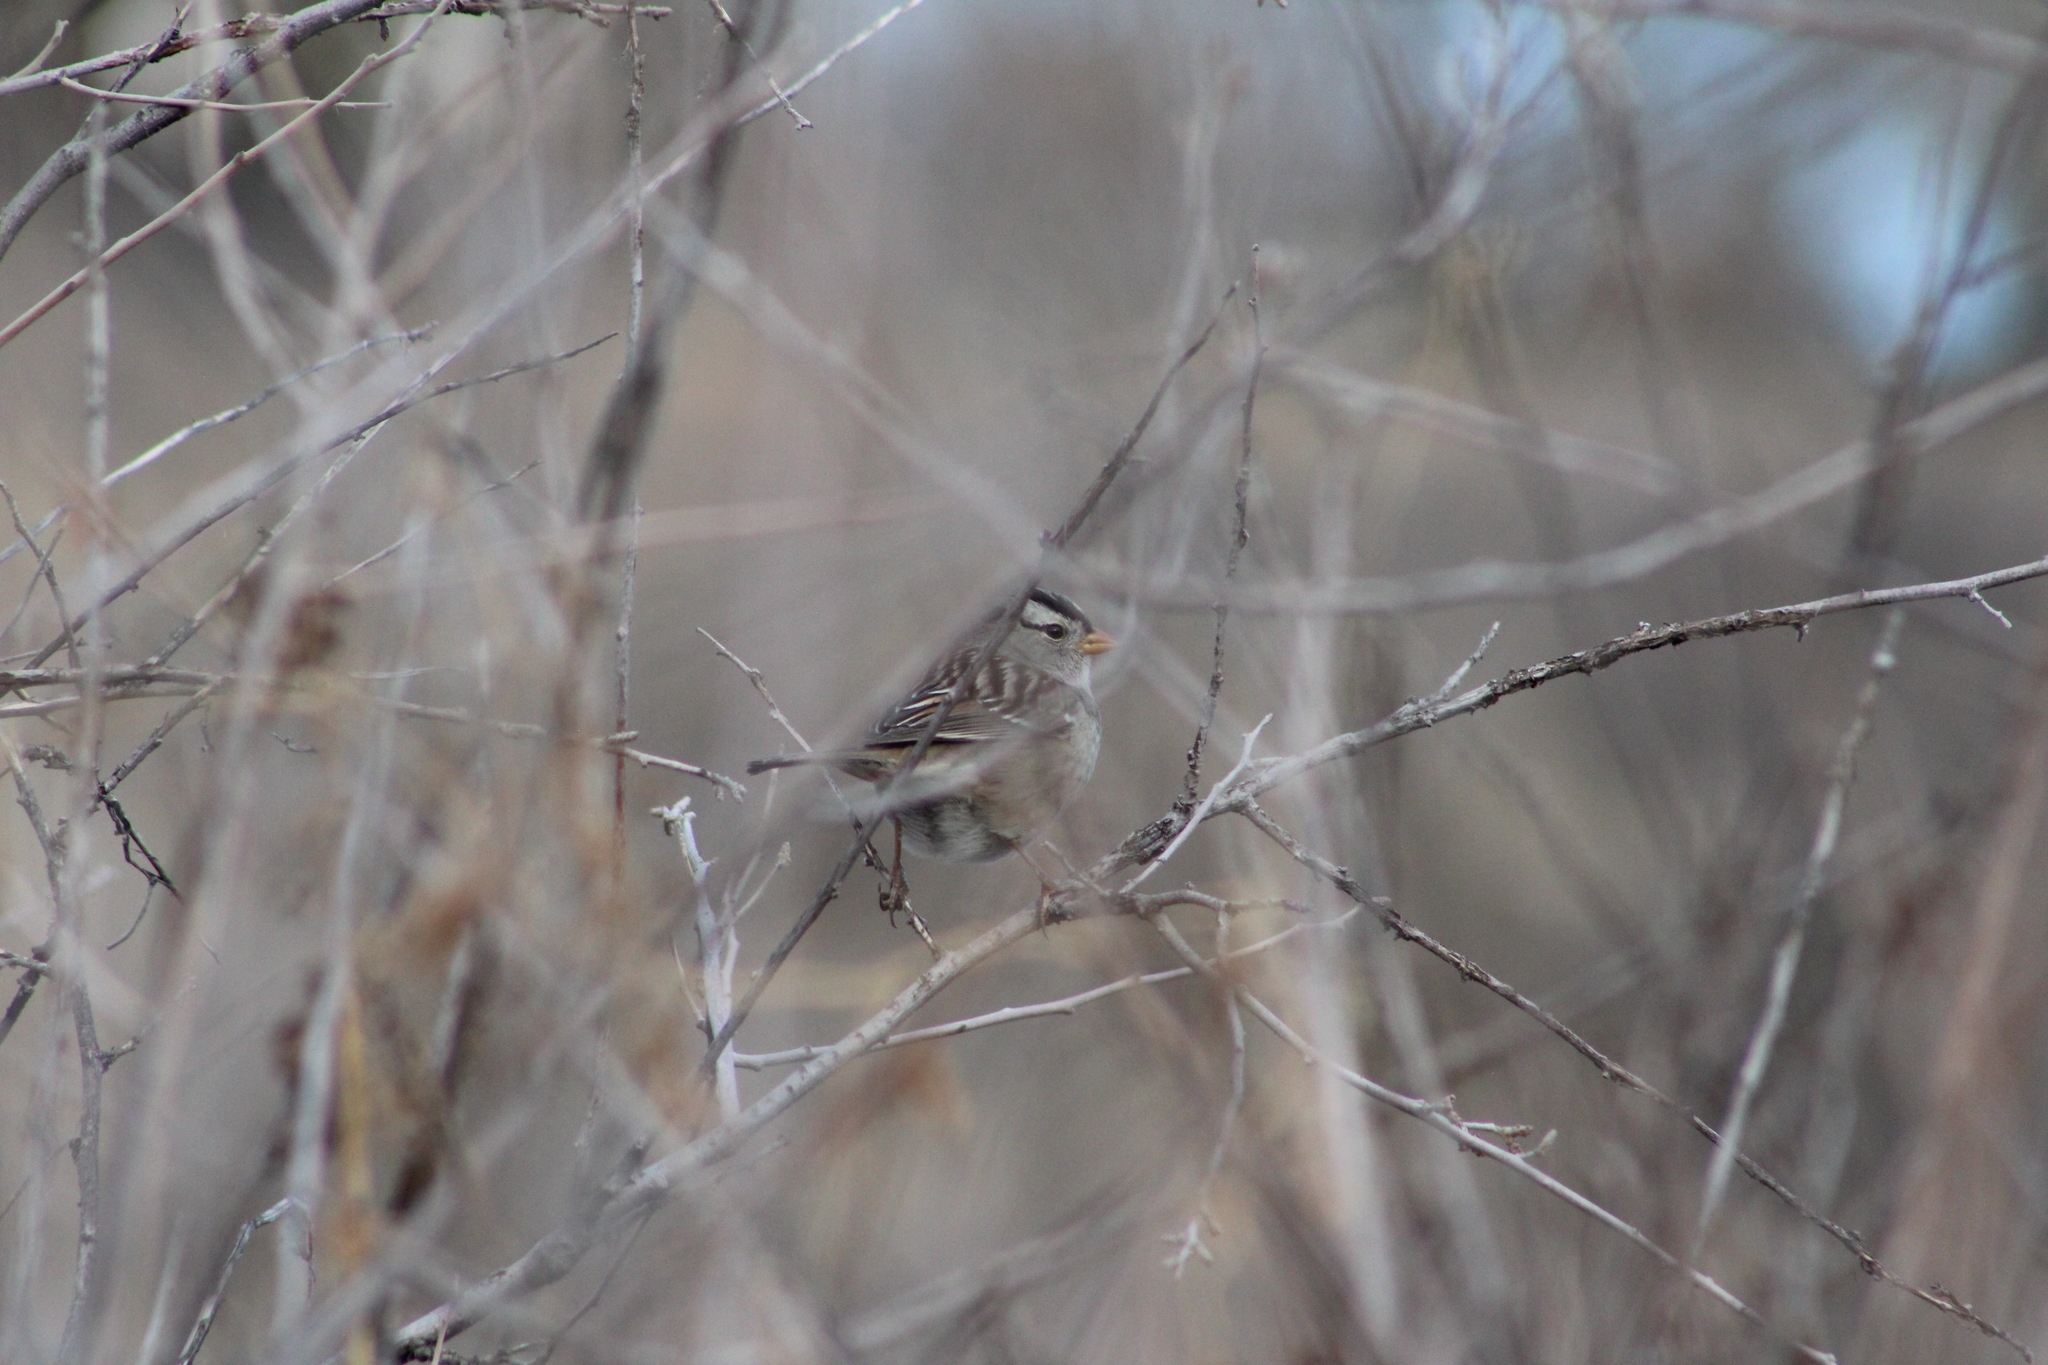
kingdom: Animalia
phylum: Chordata
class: Aves
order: Passeriformes
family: Passerellidae
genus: Zonotrichia
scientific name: Zonotrichia leucophrys
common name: White-crowned sparrow
